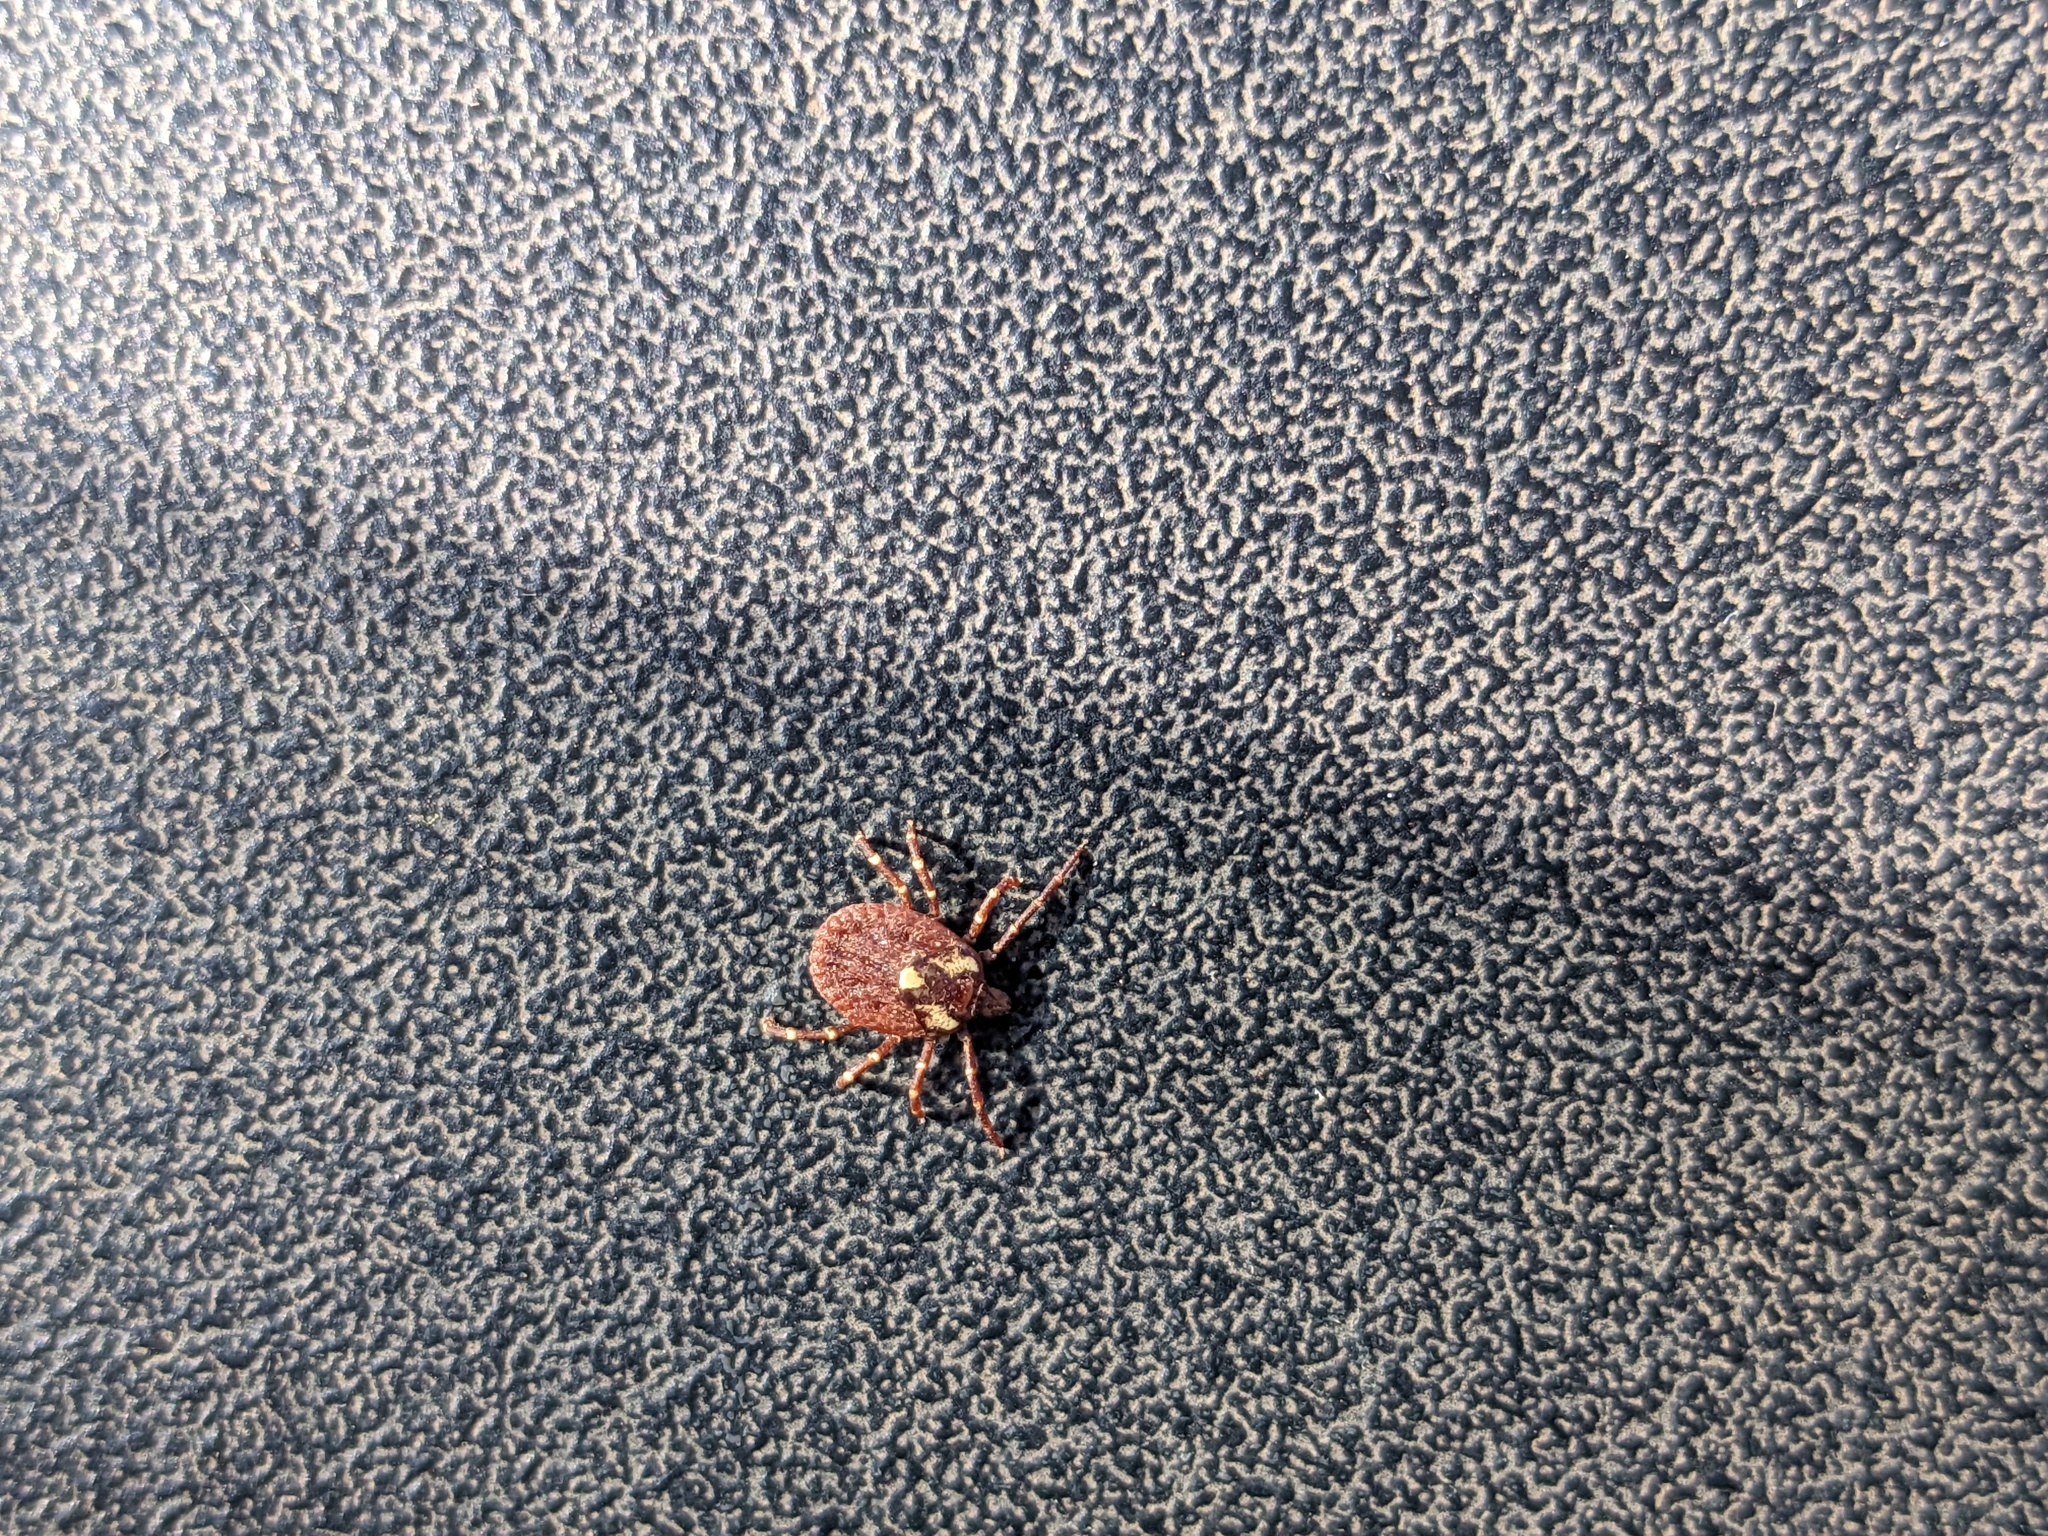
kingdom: Animalia
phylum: Arthropoda
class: Arachnida
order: Ixodida
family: Ixodidae
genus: Amblyomma
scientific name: Amblyomma triguttatum
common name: Kangaroo hard tick
